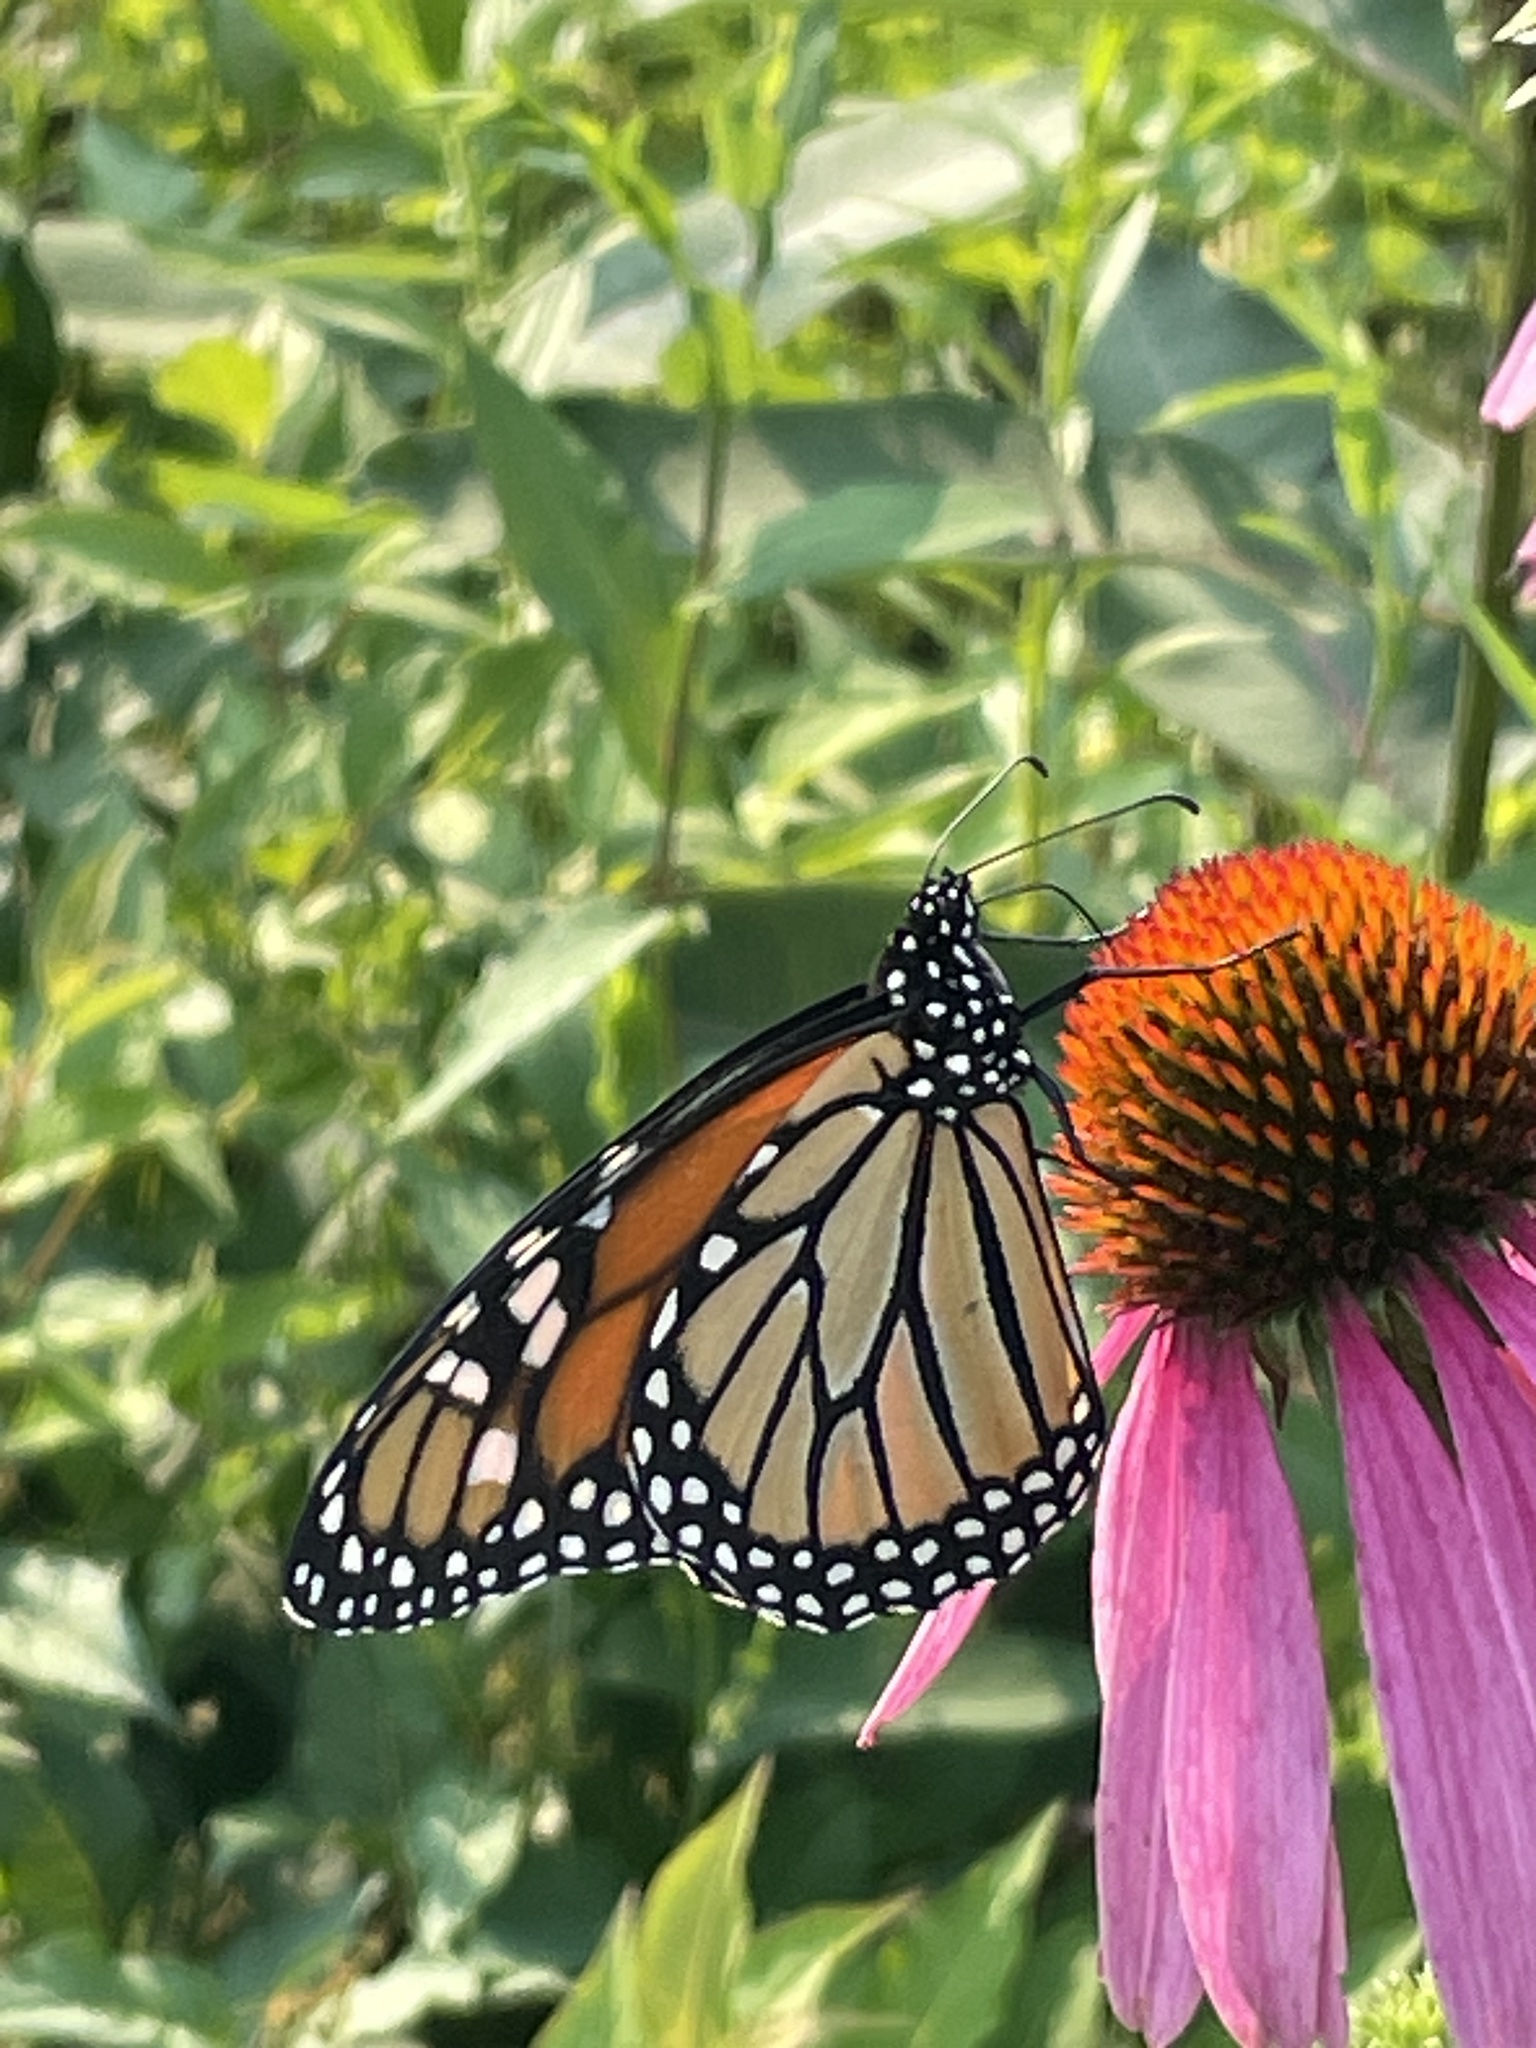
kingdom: Animalia
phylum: Arthropoda
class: Insecta
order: Lepidoptera
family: Nymphalidae
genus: Danaus
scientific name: Danaus plexippus
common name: Monarch
